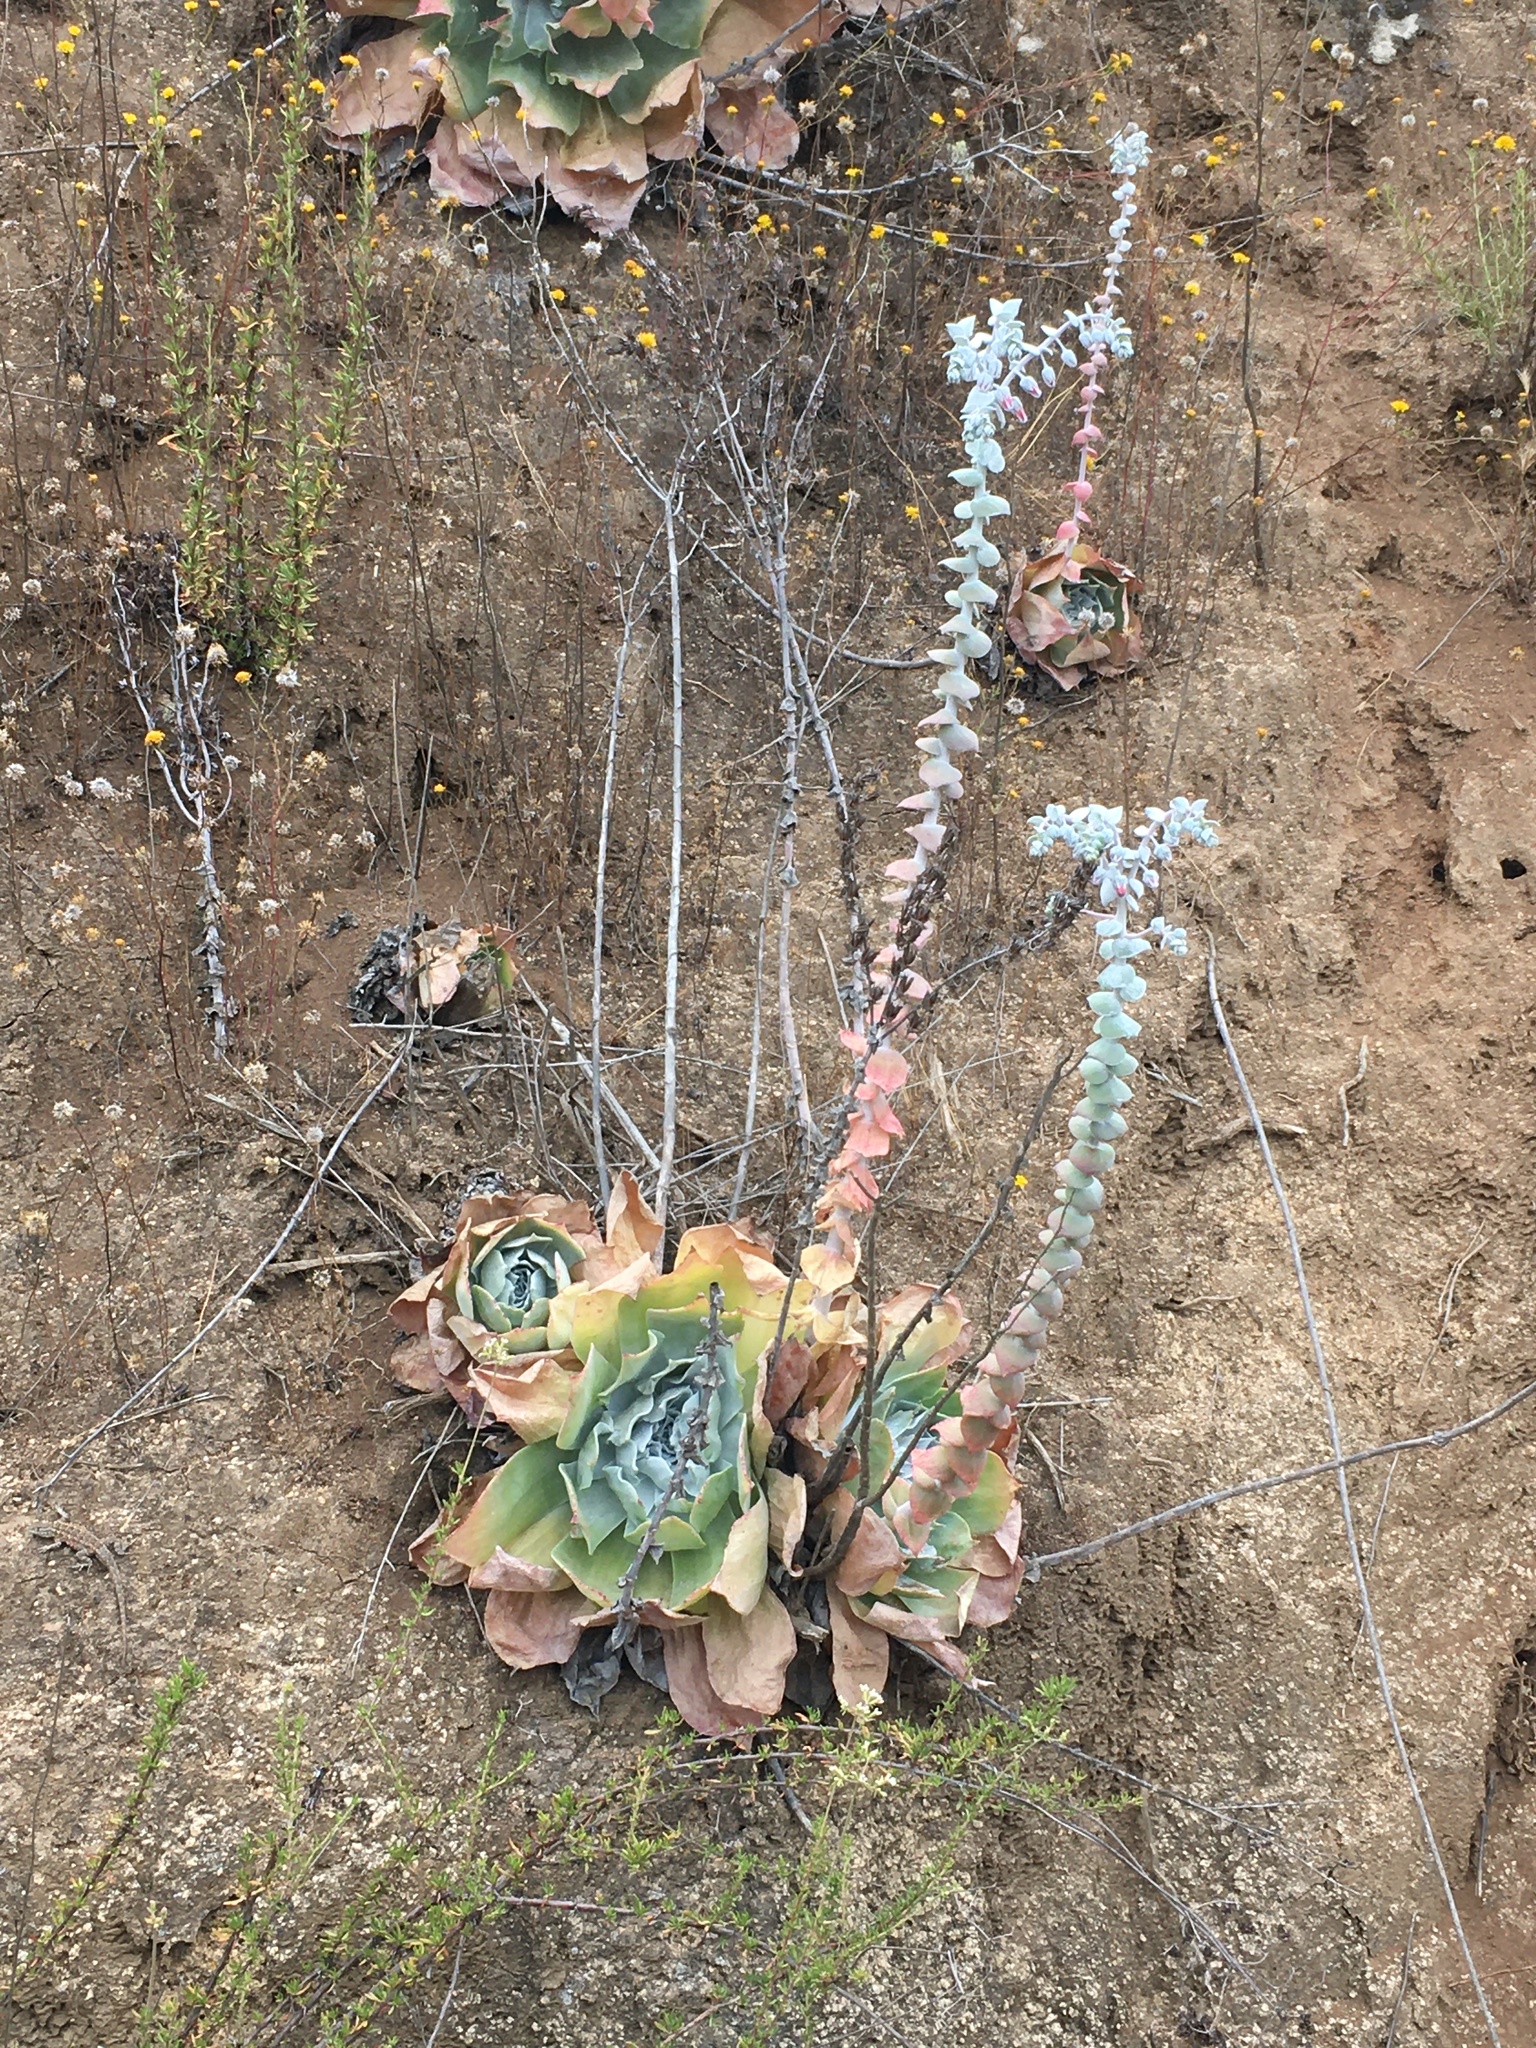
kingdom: Plantae
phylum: Tracheophyta
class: Magnoliopsida
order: Saxifragales
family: Crassulaceae
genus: Dudleya
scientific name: Dudleya pulverulenta
